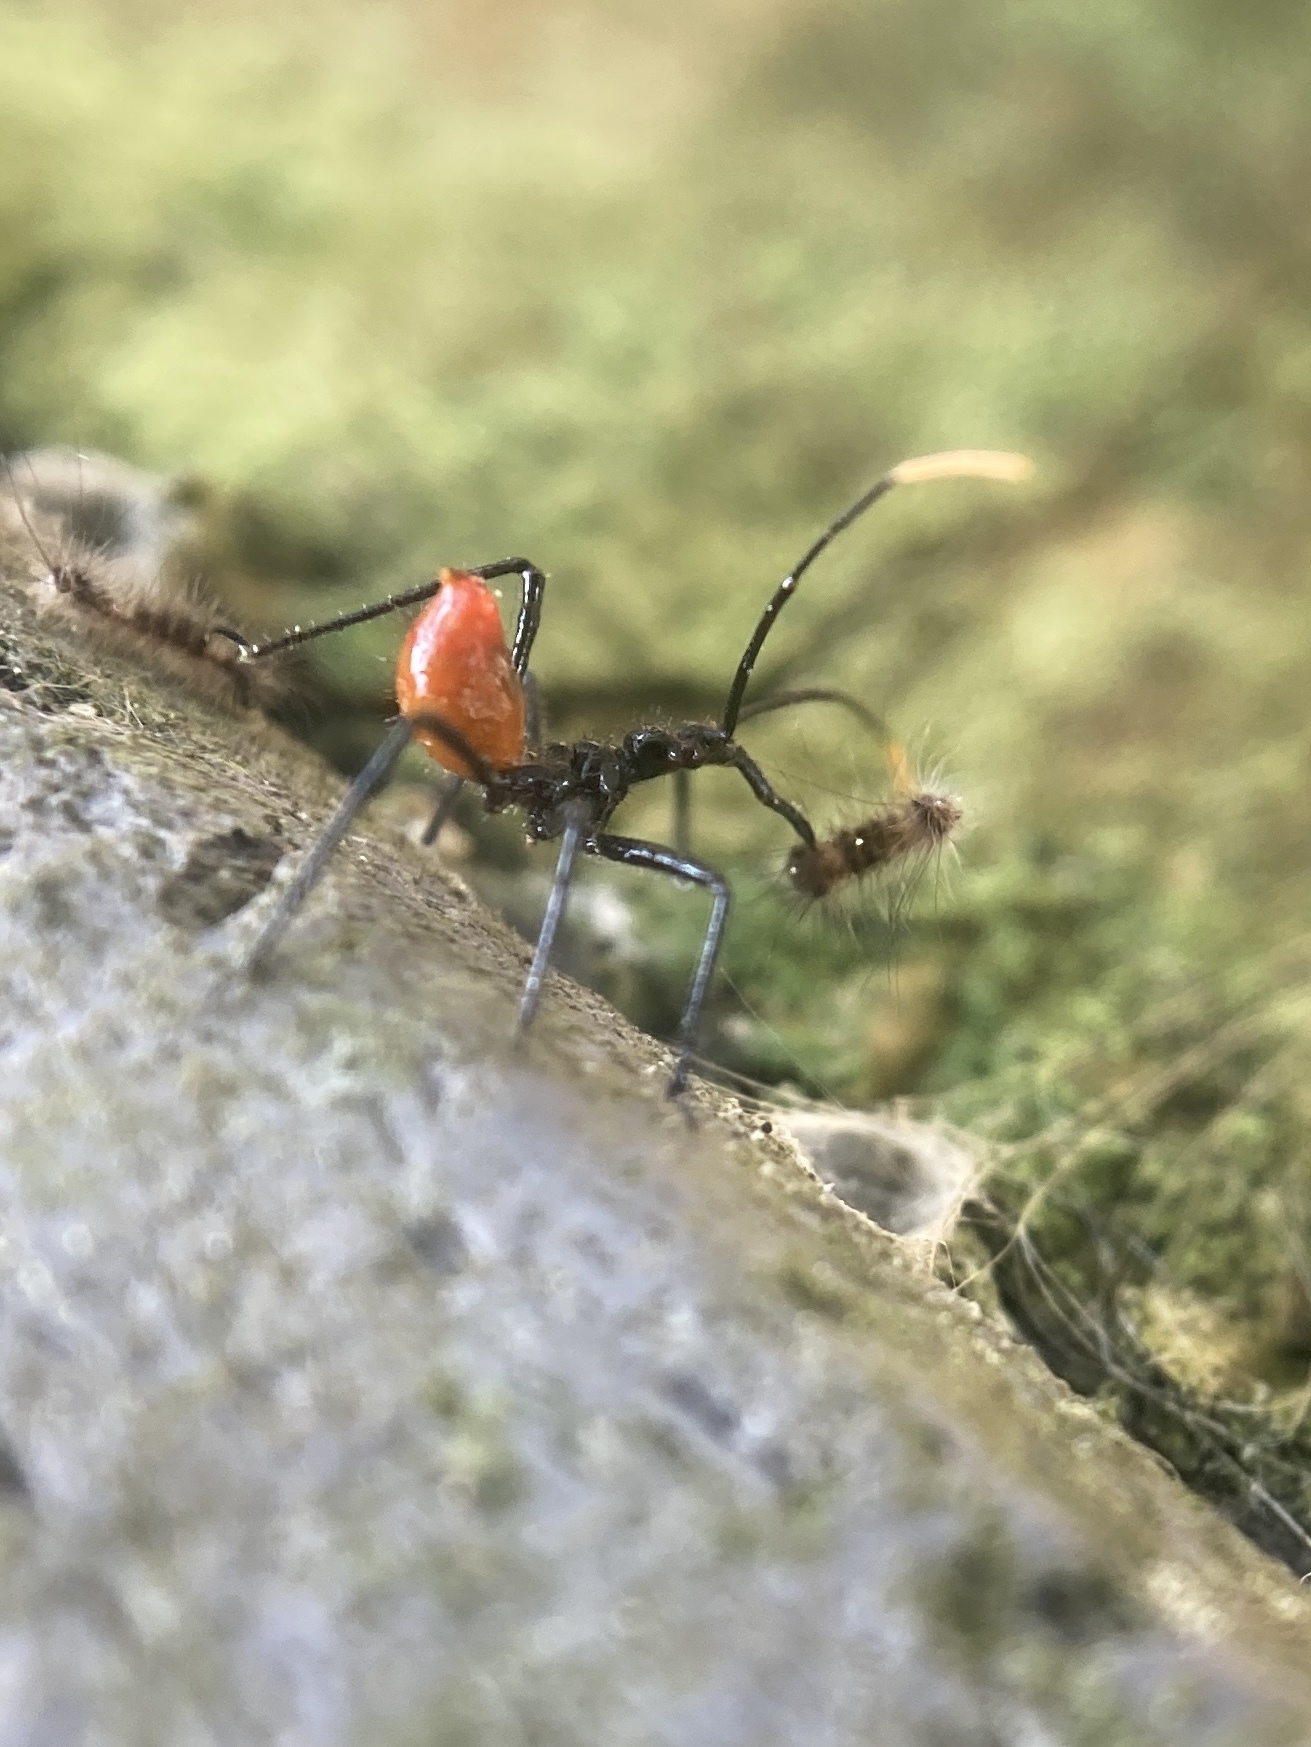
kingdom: Animalia
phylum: Arthropoda
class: Insecta
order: Hemiptera
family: Reduviidae
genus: Arilus
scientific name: Arilus cristatus
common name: North american wheel bug
